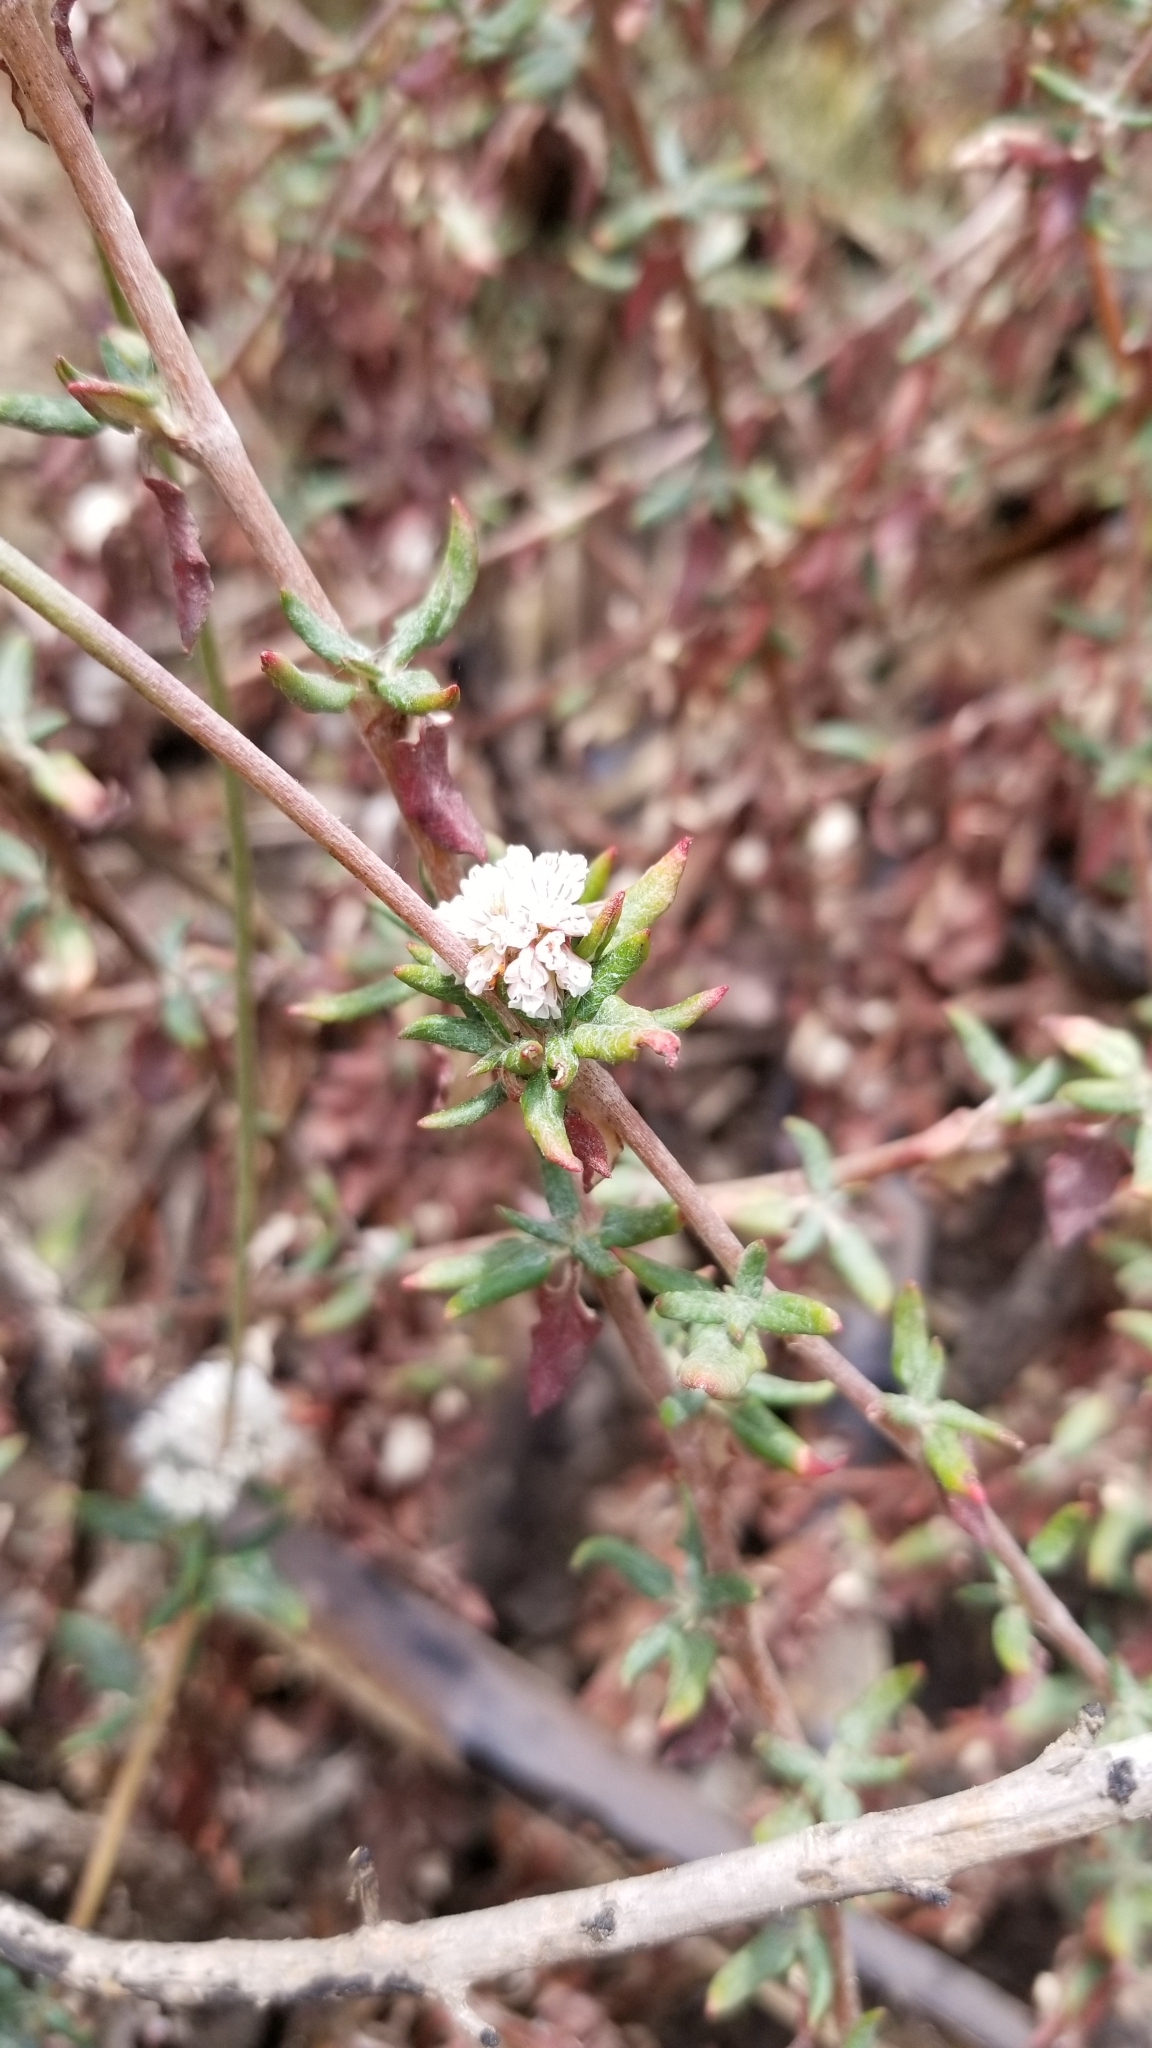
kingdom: Plantae
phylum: Tracheophyta
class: Magnoliopsida
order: Caryophyllales
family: Polygonaceae
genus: Eriogonum
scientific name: Eriogonum parvifolium
